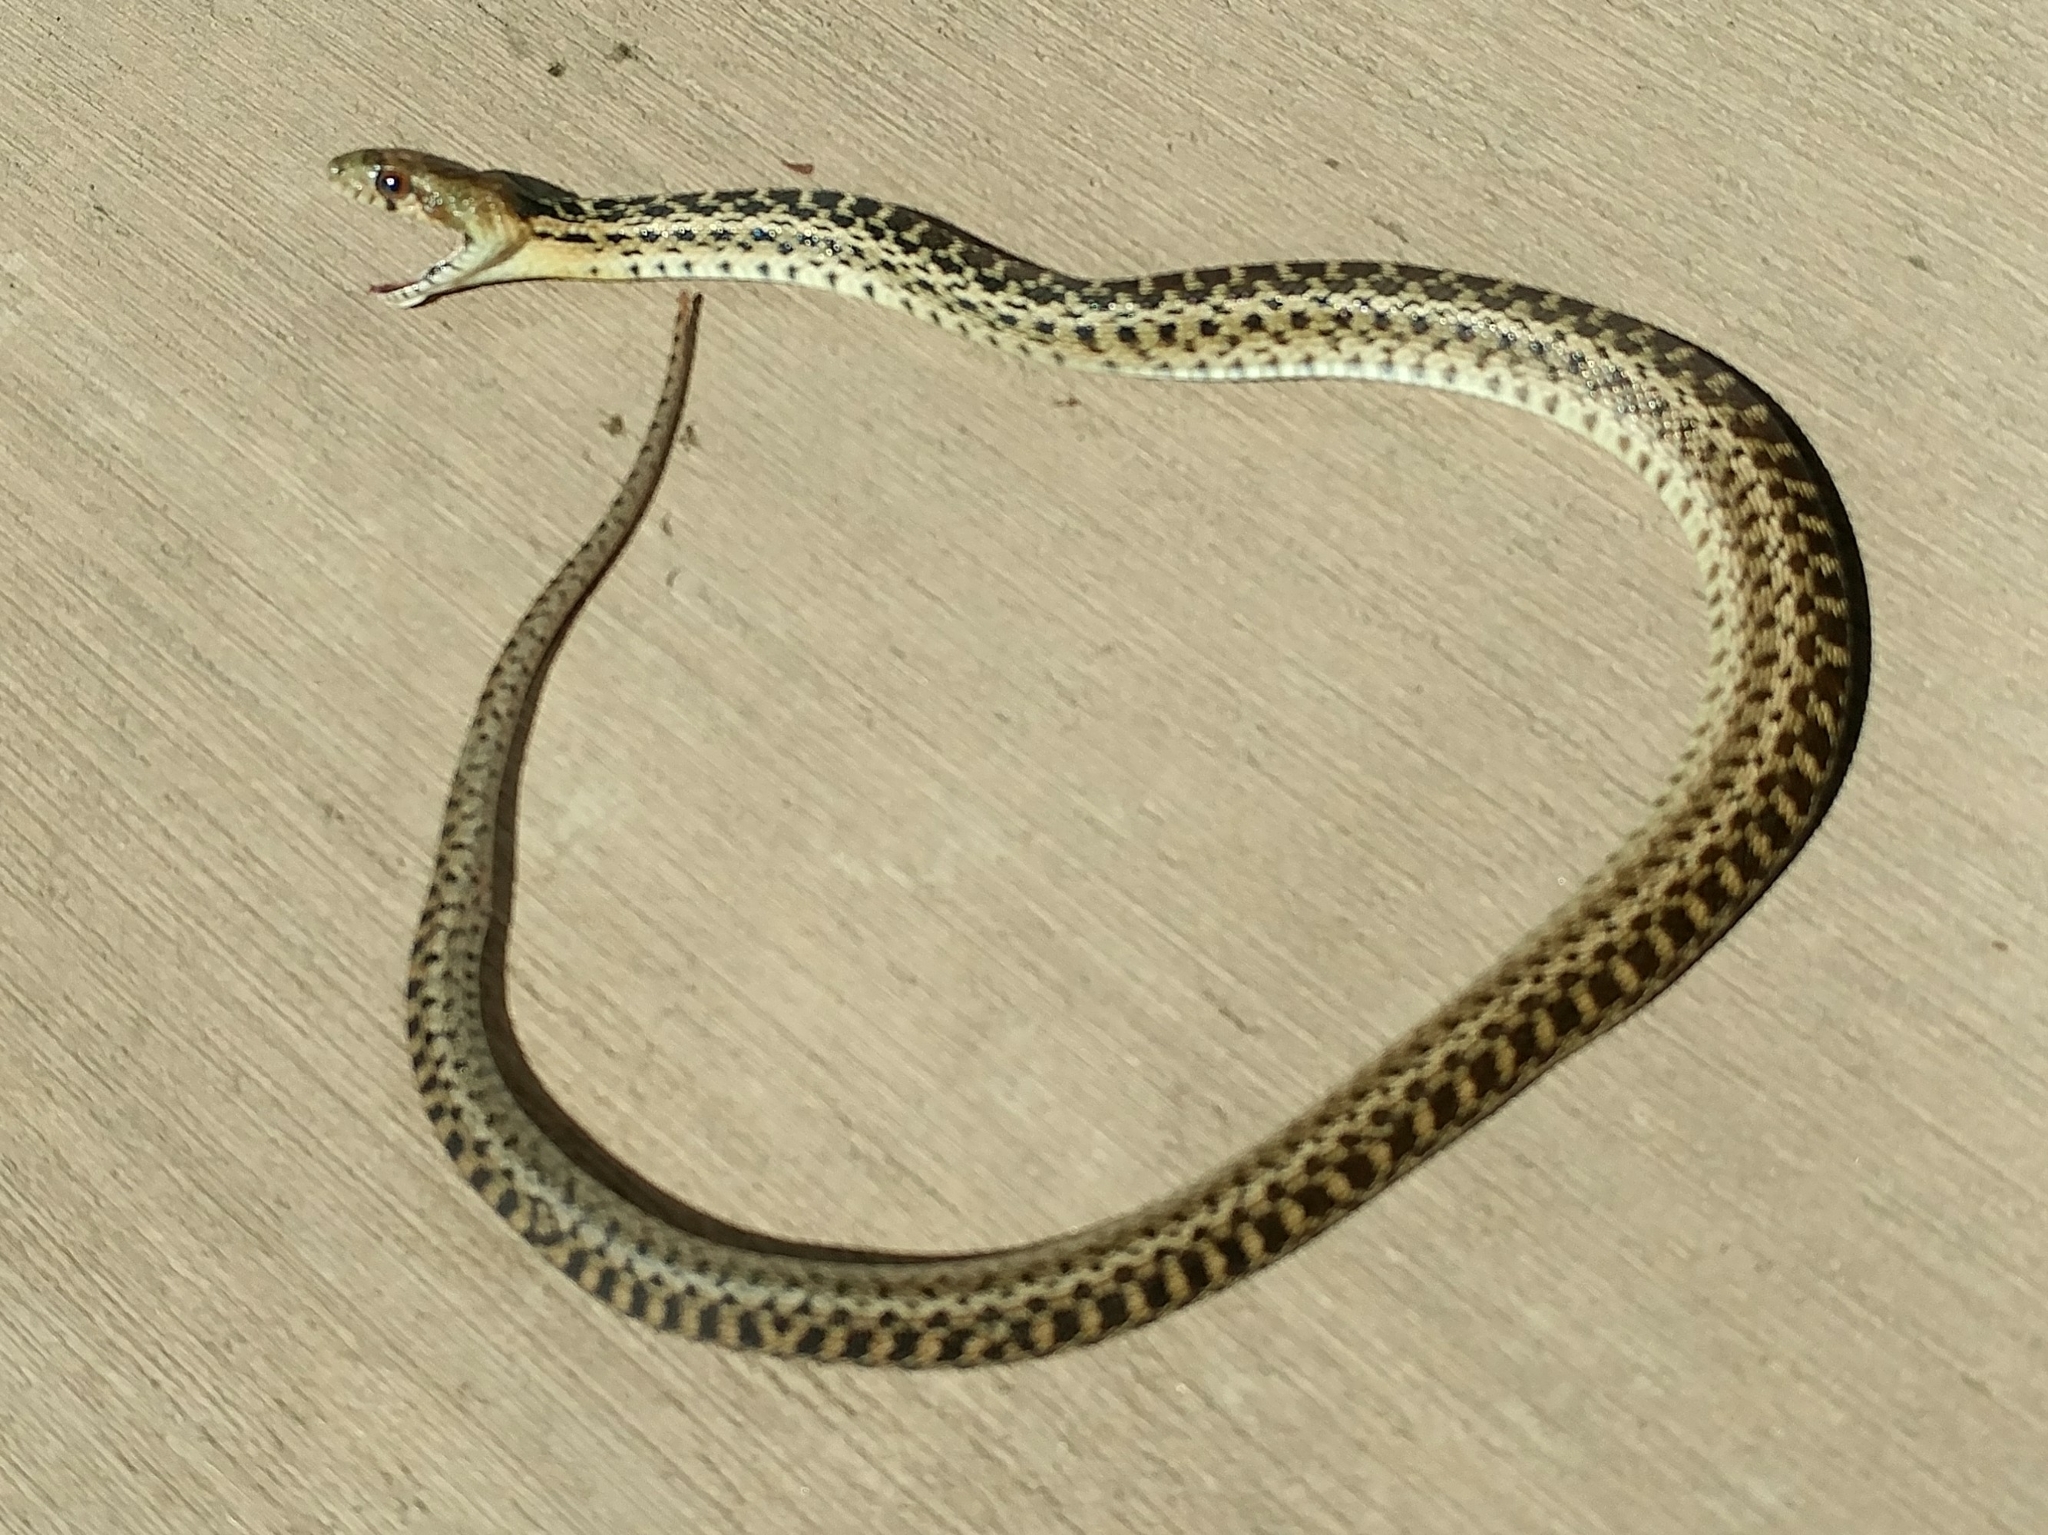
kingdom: Animalia
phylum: Chordata
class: Squamata
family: Colubridae
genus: Pituophis
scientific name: Pituophis catenifer
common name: Gopher snake
